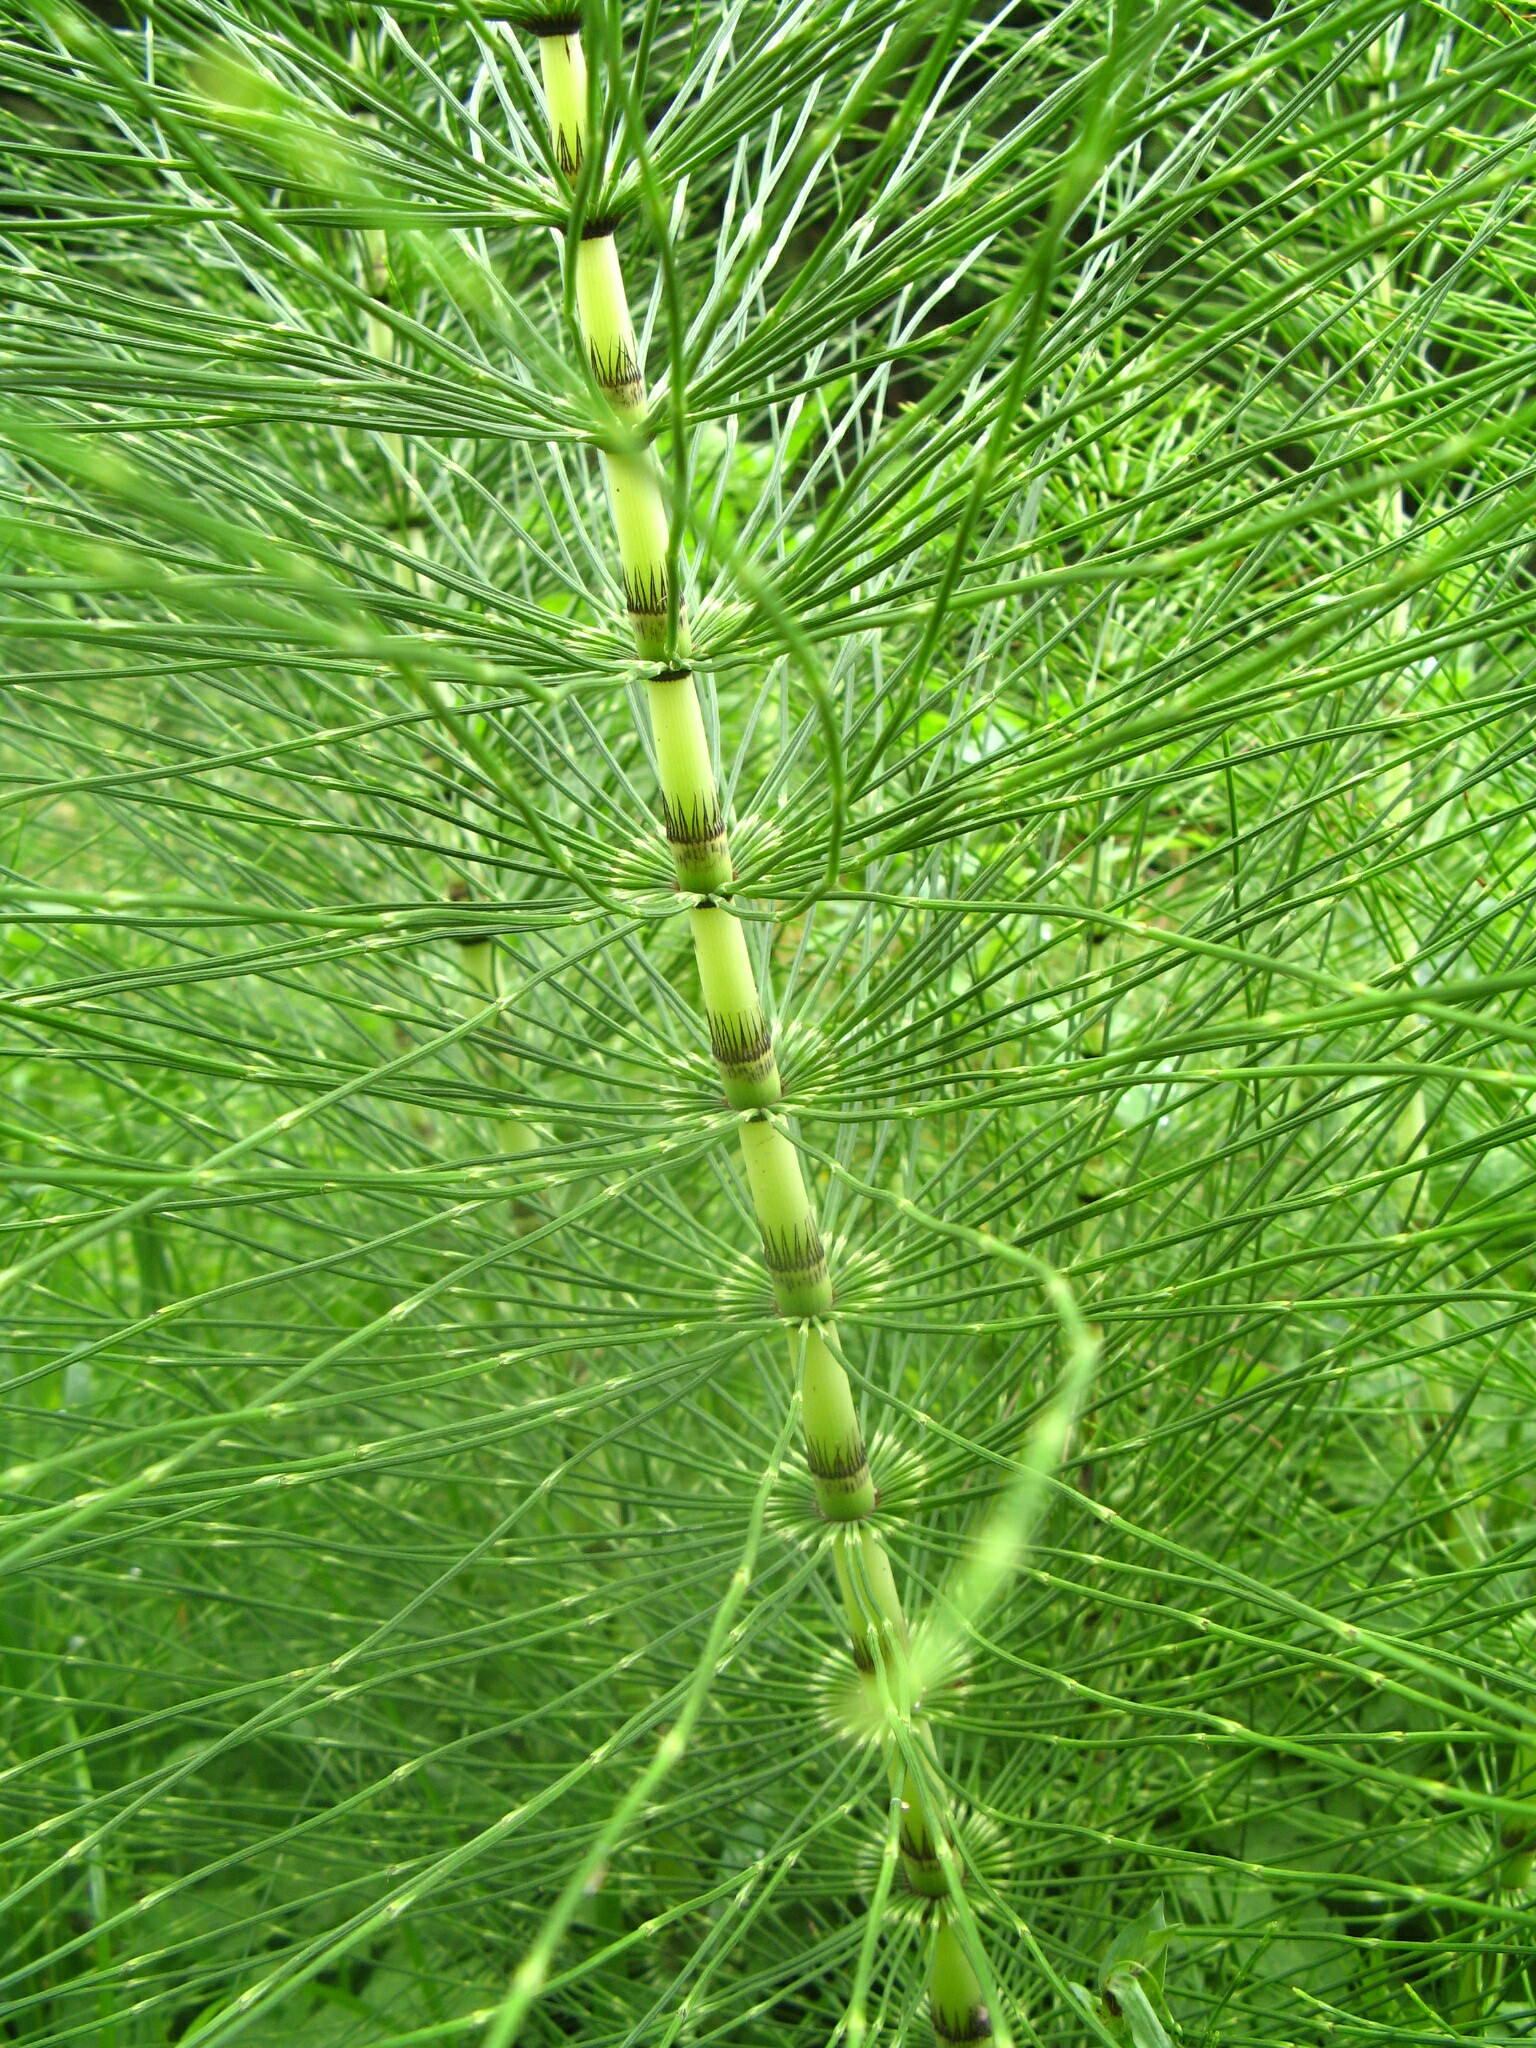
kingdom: Plantae
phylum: Tracheophyta
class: Polypodiopsida
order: Equisetales
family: Equisetaceae
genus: Equisetum
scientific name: Equisetum telmateia
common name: Great horsetail
